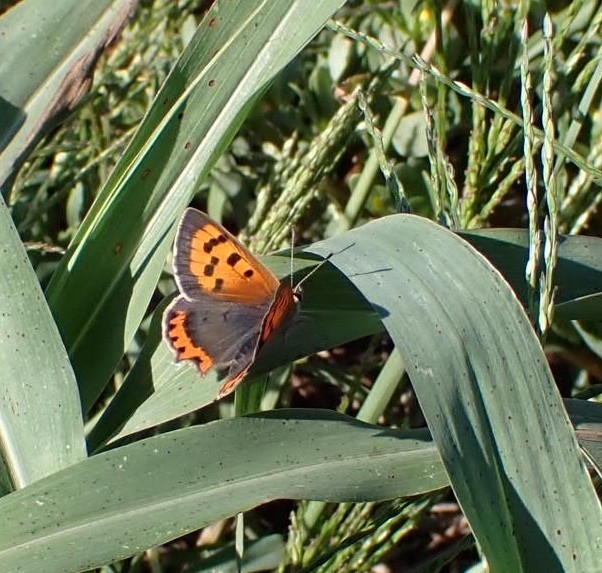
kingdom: Animalia
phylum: Arthropoda
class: Insecta
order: Lepidoptera
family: Lycaenidae
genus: Lycaena
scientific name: Lycaena phlaeas
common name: Small copper
